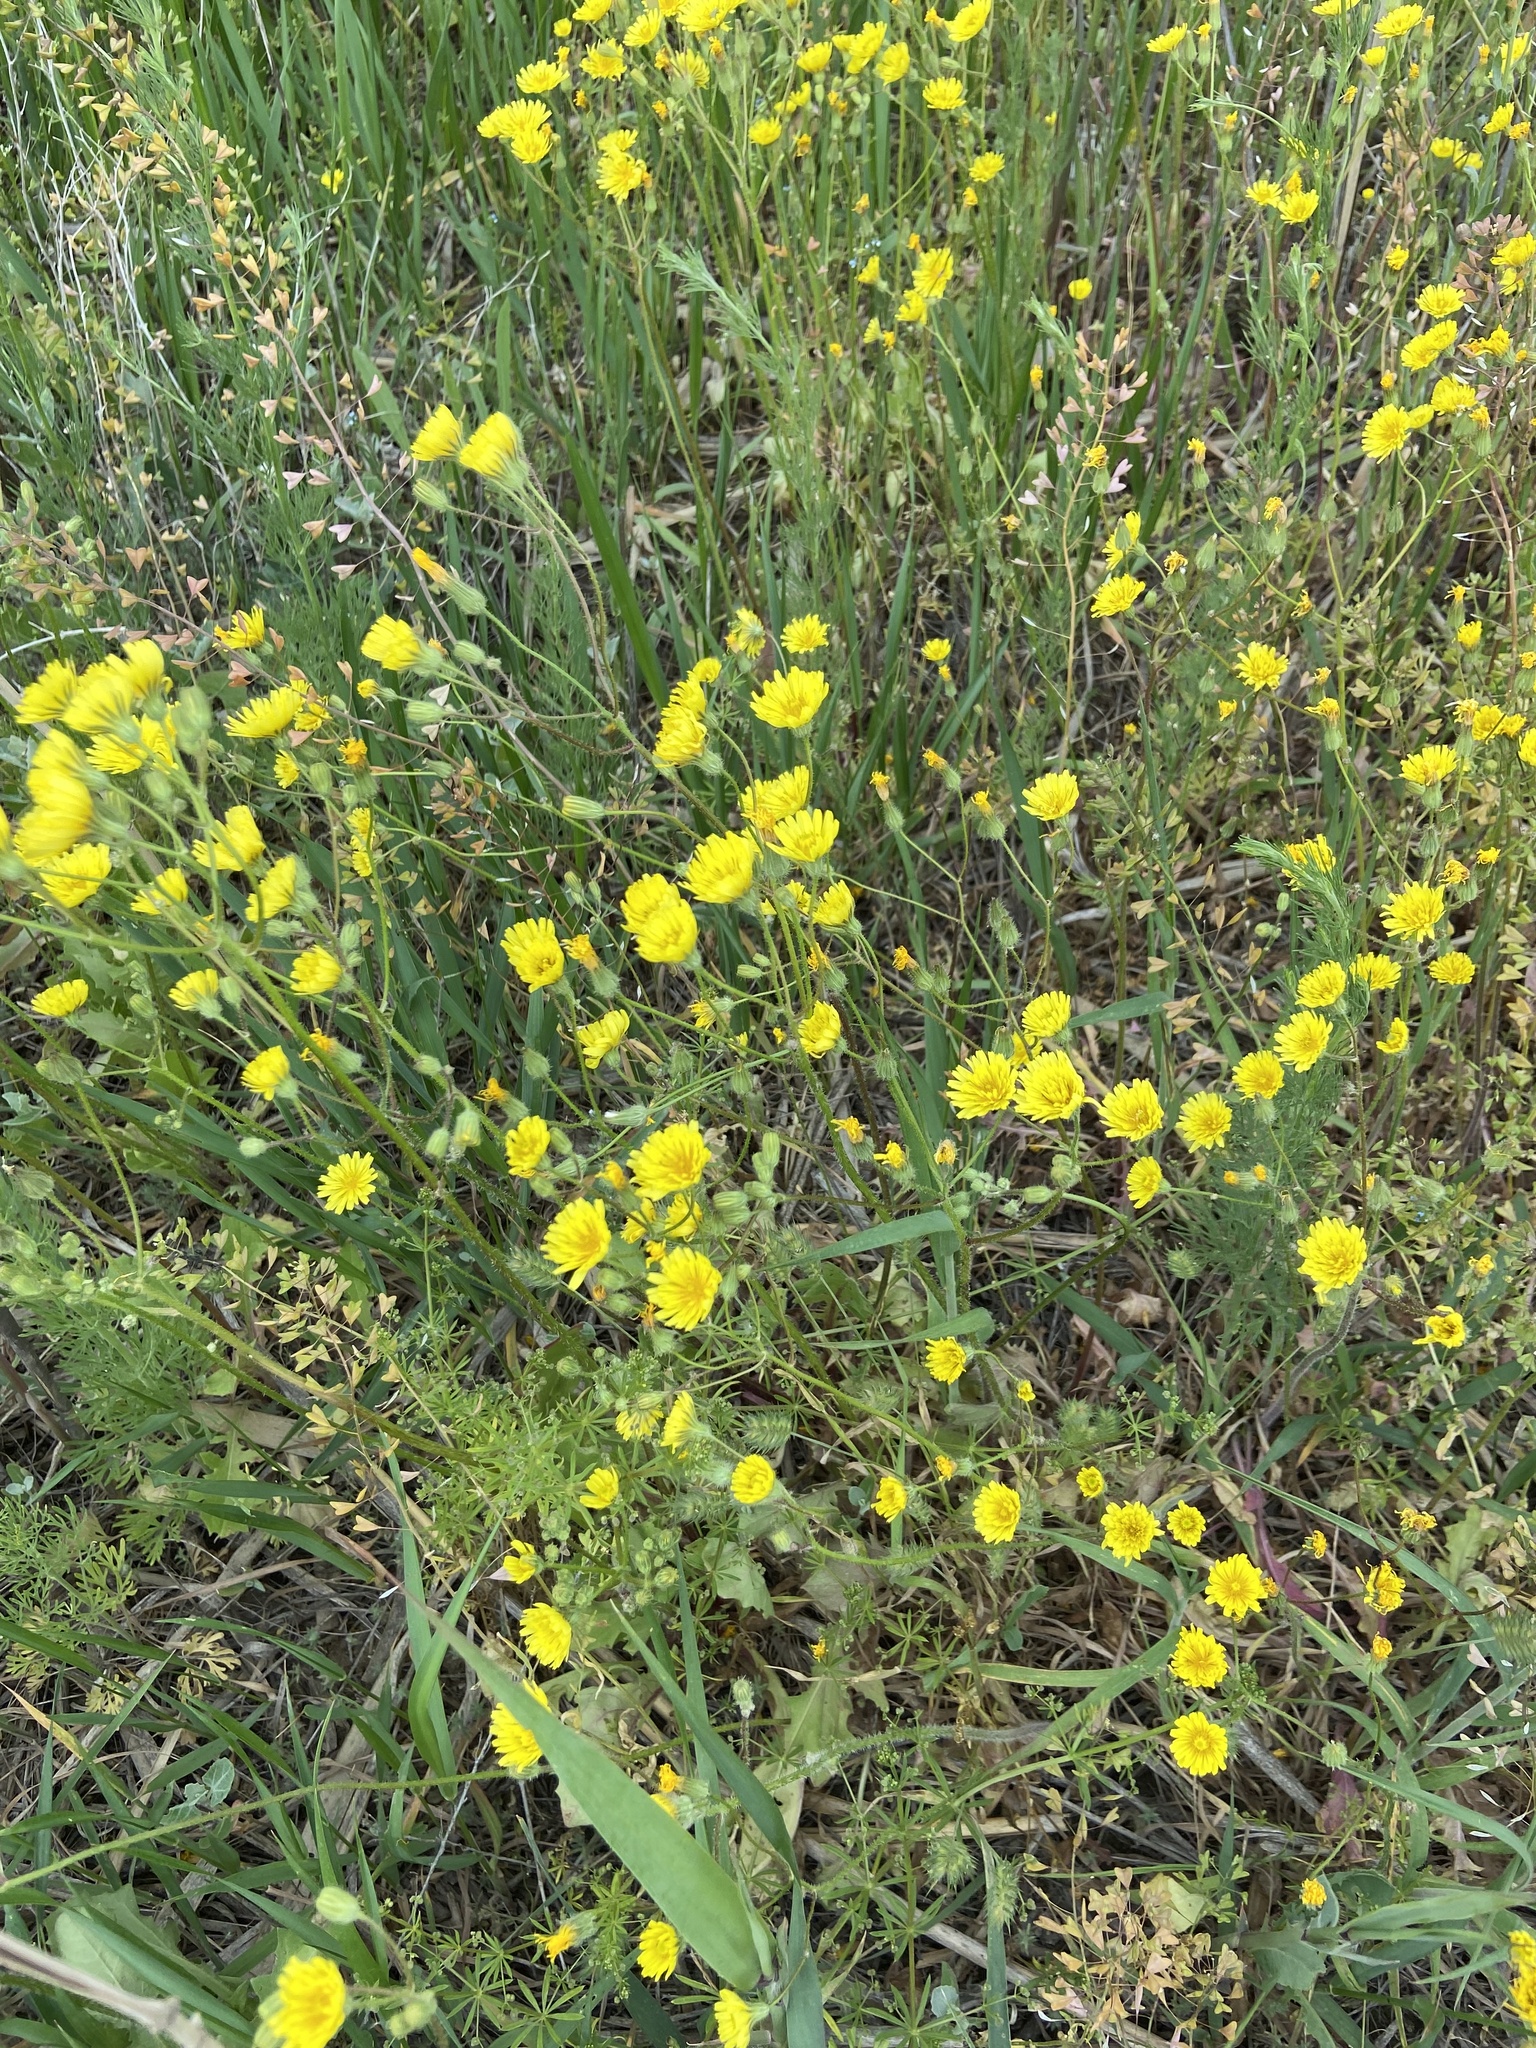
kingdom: Plantae
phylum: Tracheophyta
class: Magnoliopsida
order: Asterales
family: Asteraceae
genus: Crepis
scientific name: Crepis sancta
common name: Hawk's-beard
